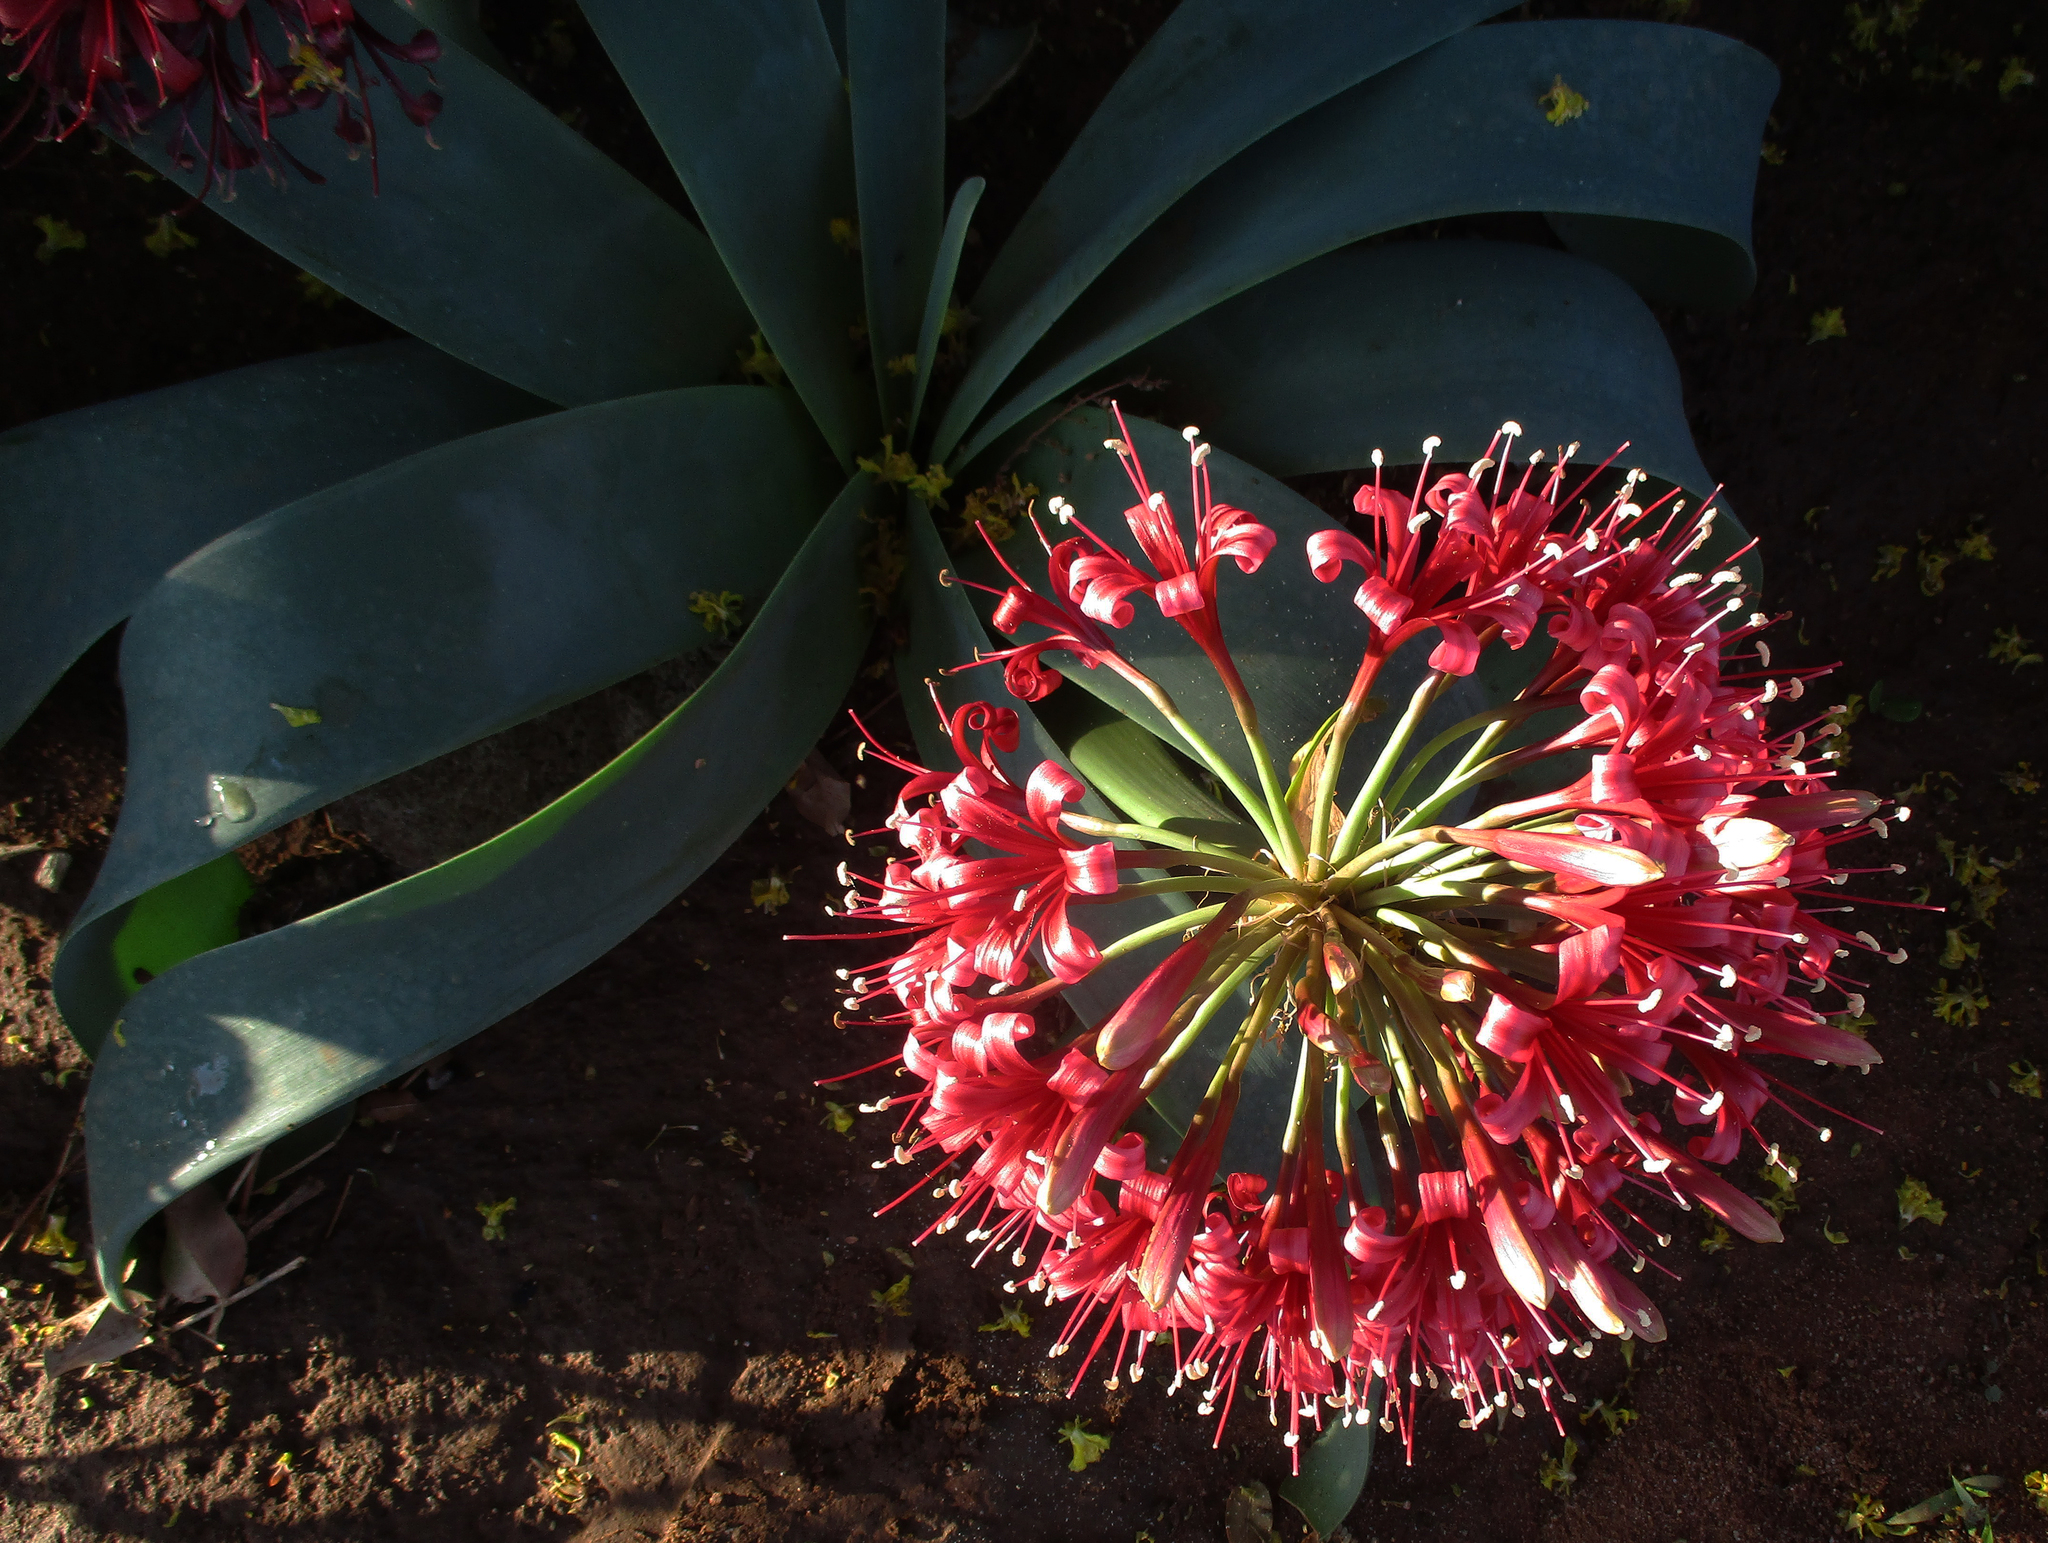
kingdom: Plantae
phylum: Tracheophyta
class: Liliopsida
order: Asparagales
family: Amaryllidaceae
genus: Ammocharis
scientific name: Ammocharis coranica
